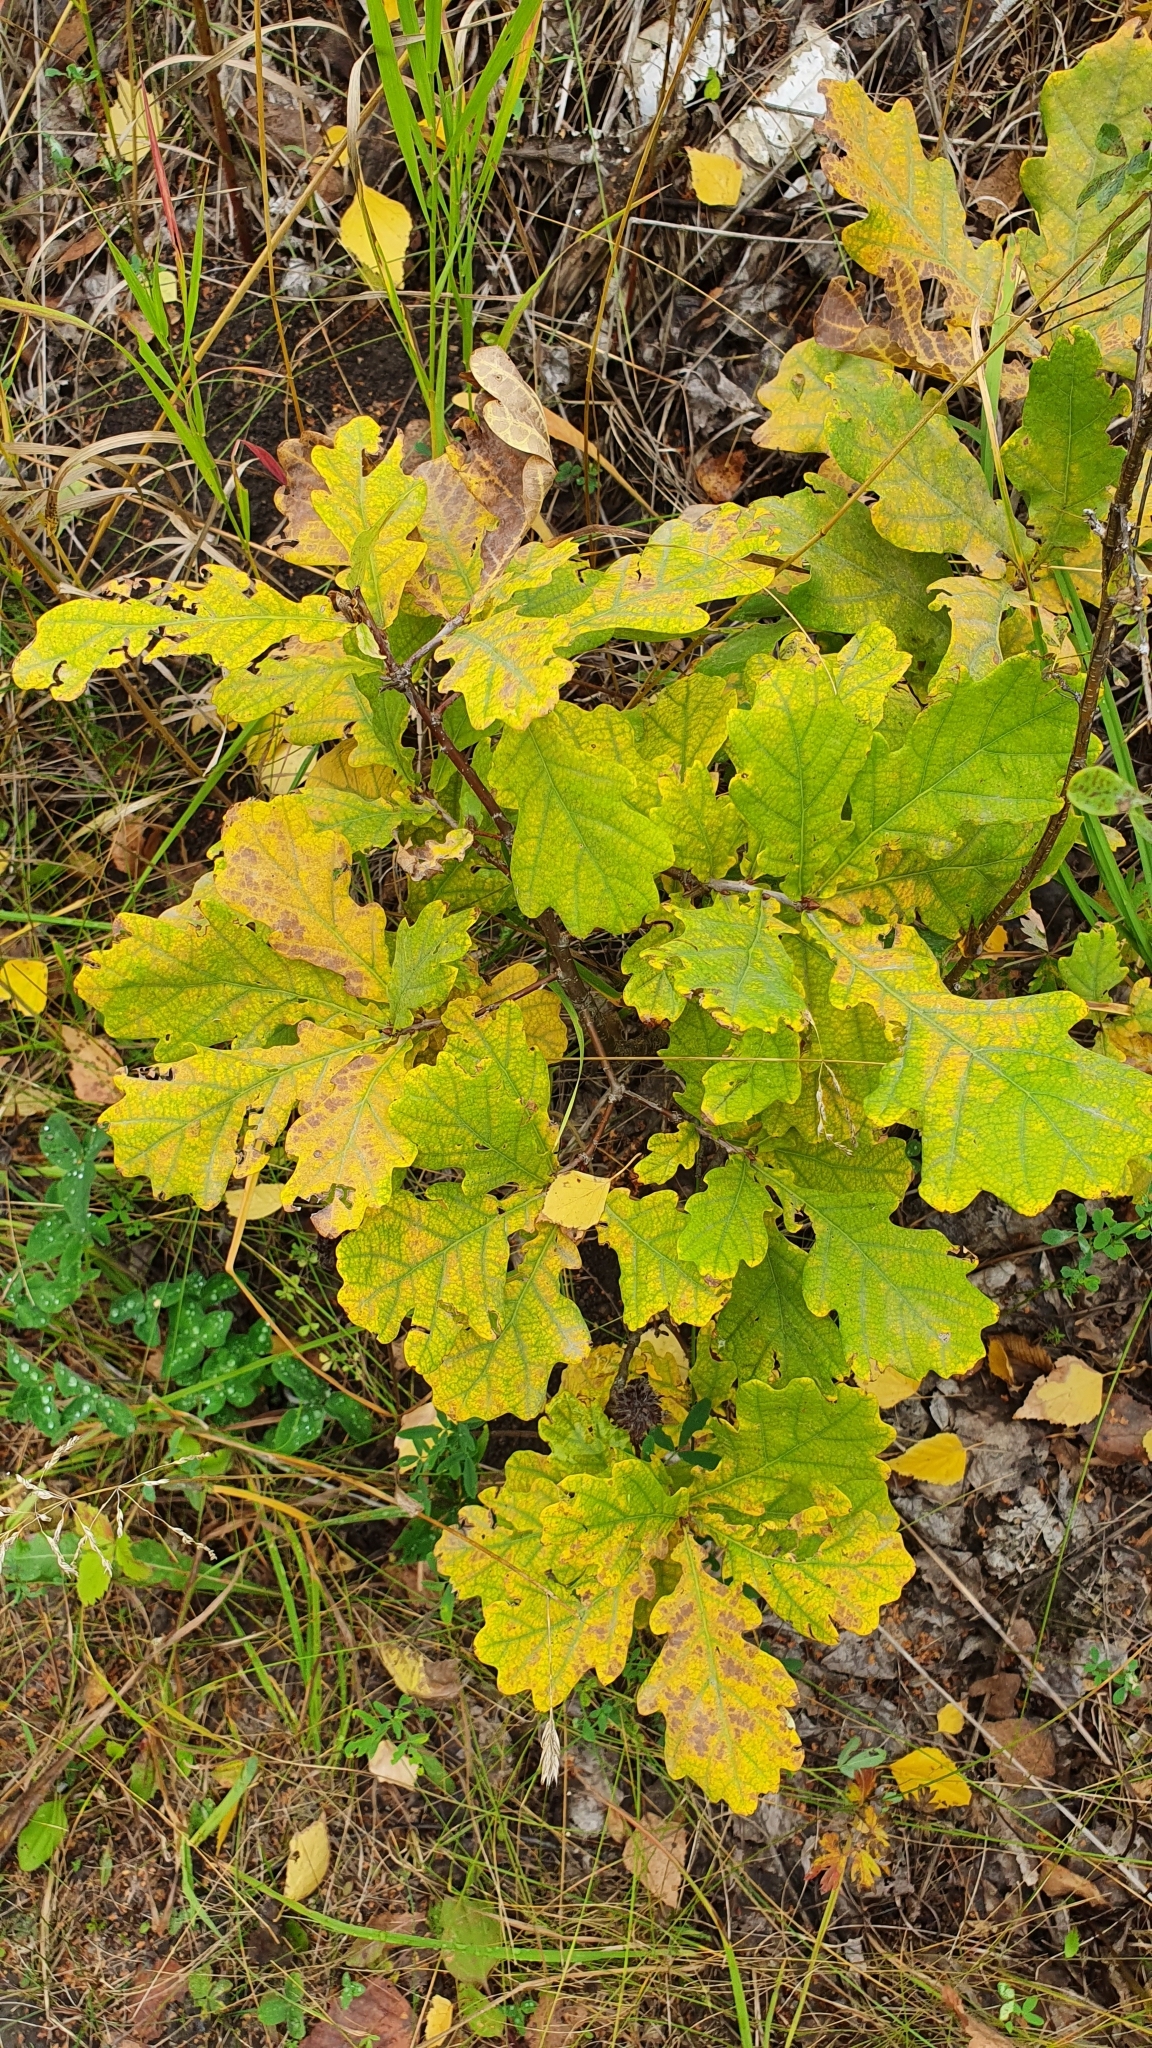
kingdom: Plantae
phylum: Tracheophyta
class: Magnoliopsida
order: Fagales
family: Fagaceae
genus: Quercus
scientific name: Quercus robur
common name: Pedunculate oak
